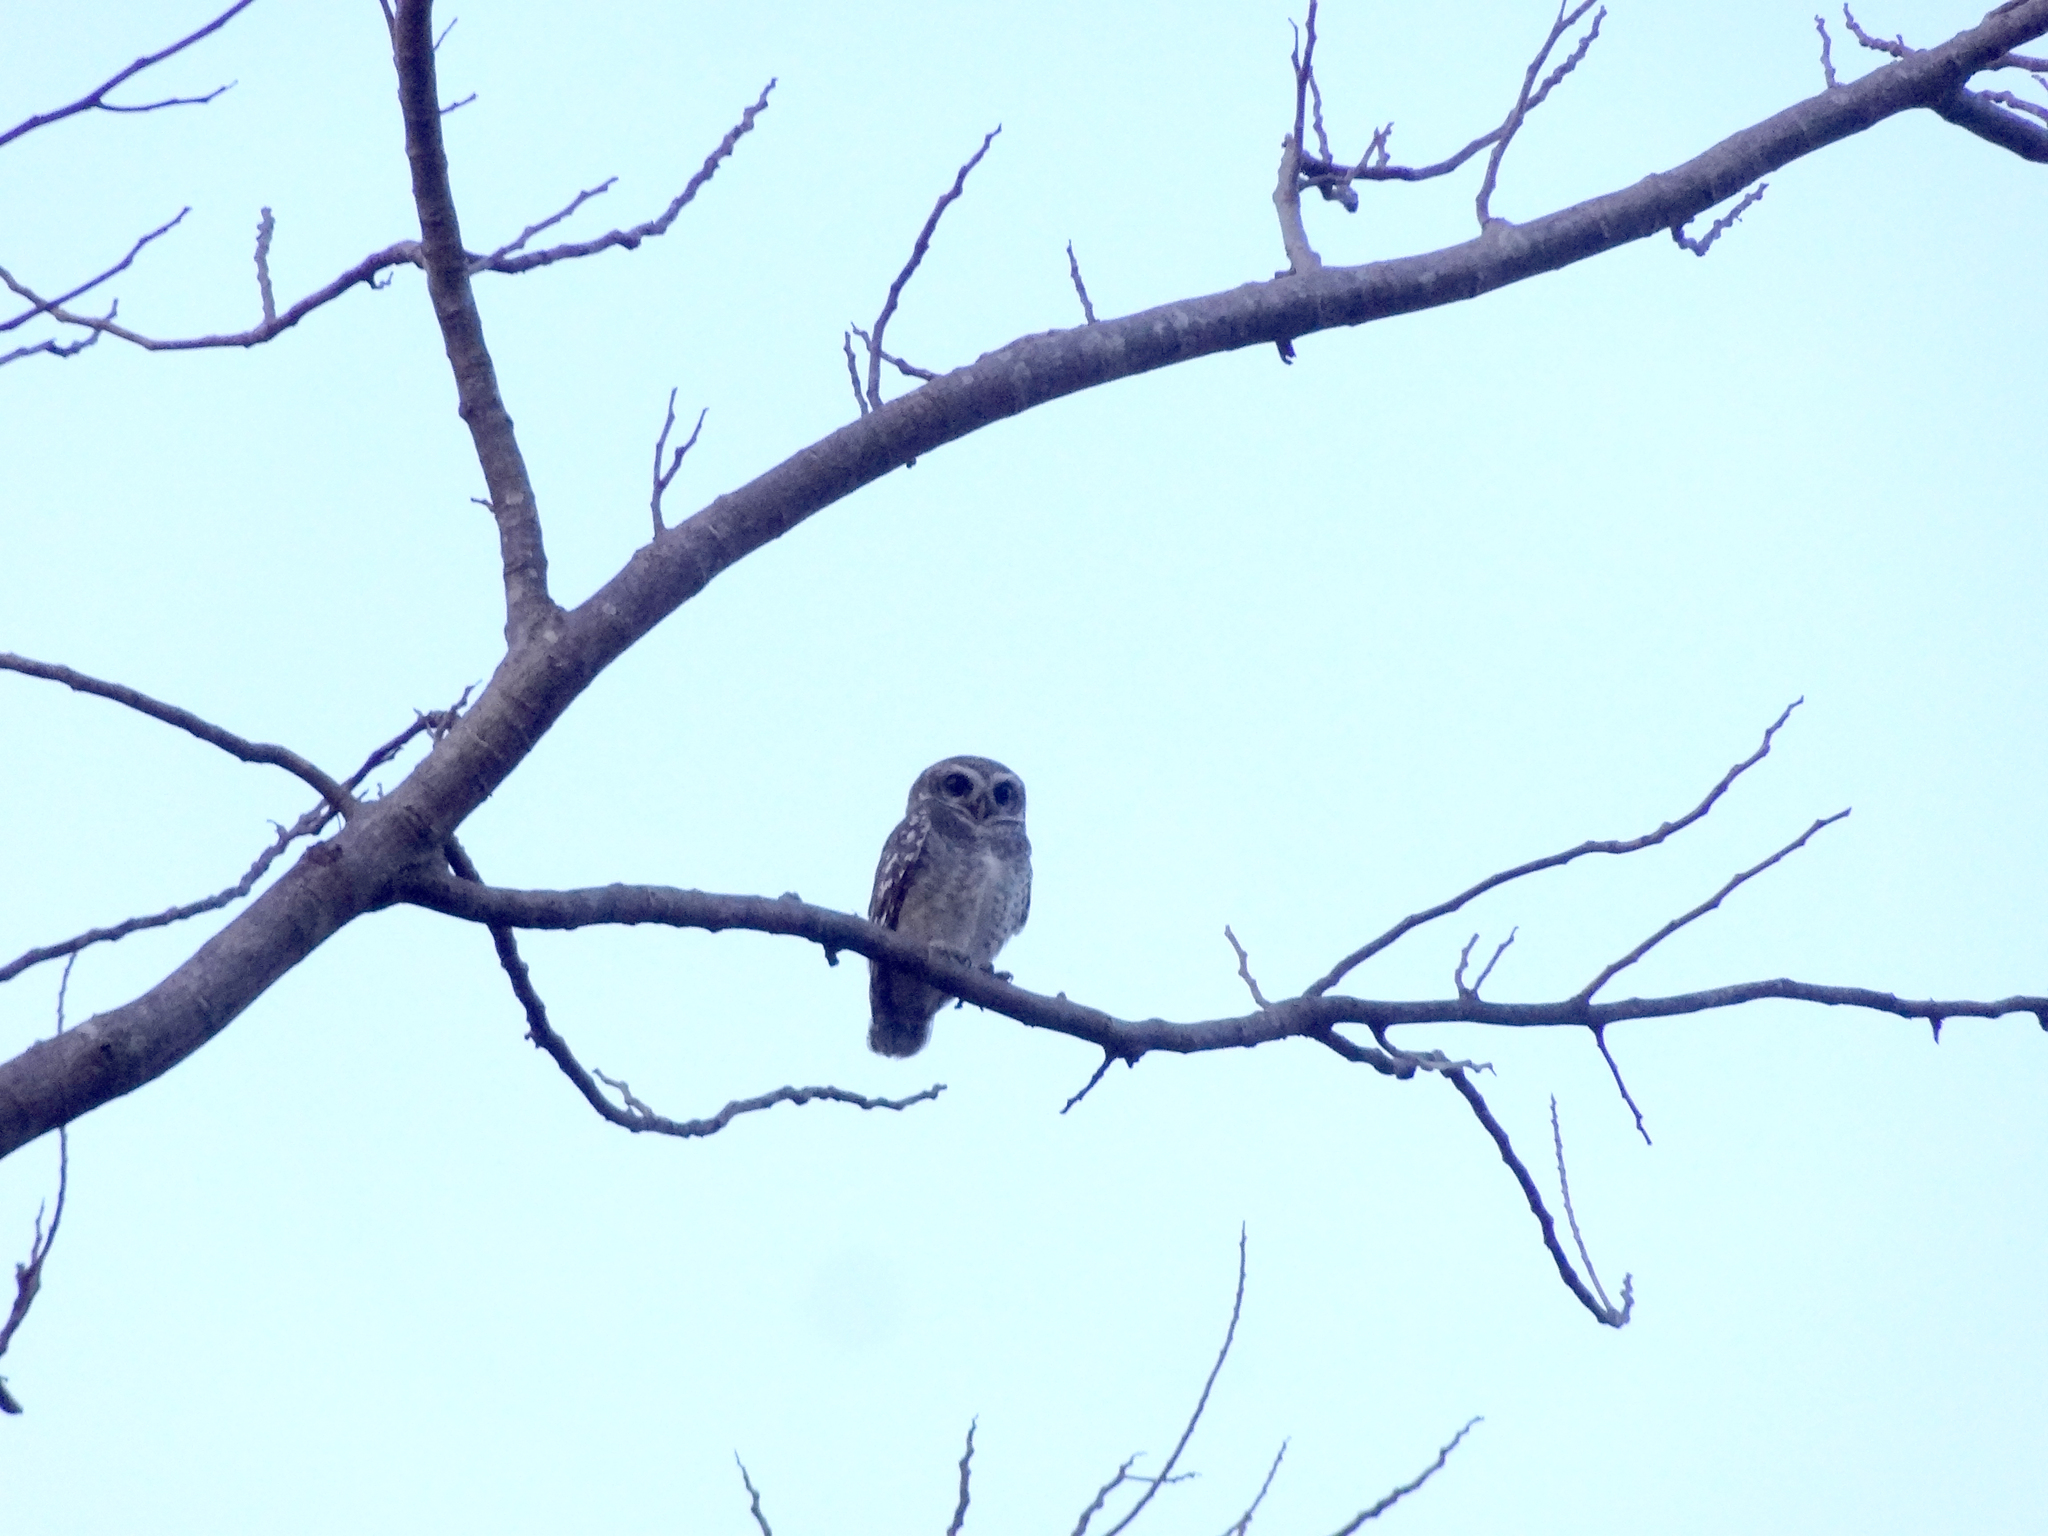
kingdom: Animalia
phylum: Chordata
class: Aves
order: Strigiformes
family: Strigidae
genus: Athene
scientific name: Athene brama
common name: Spotted owlet
